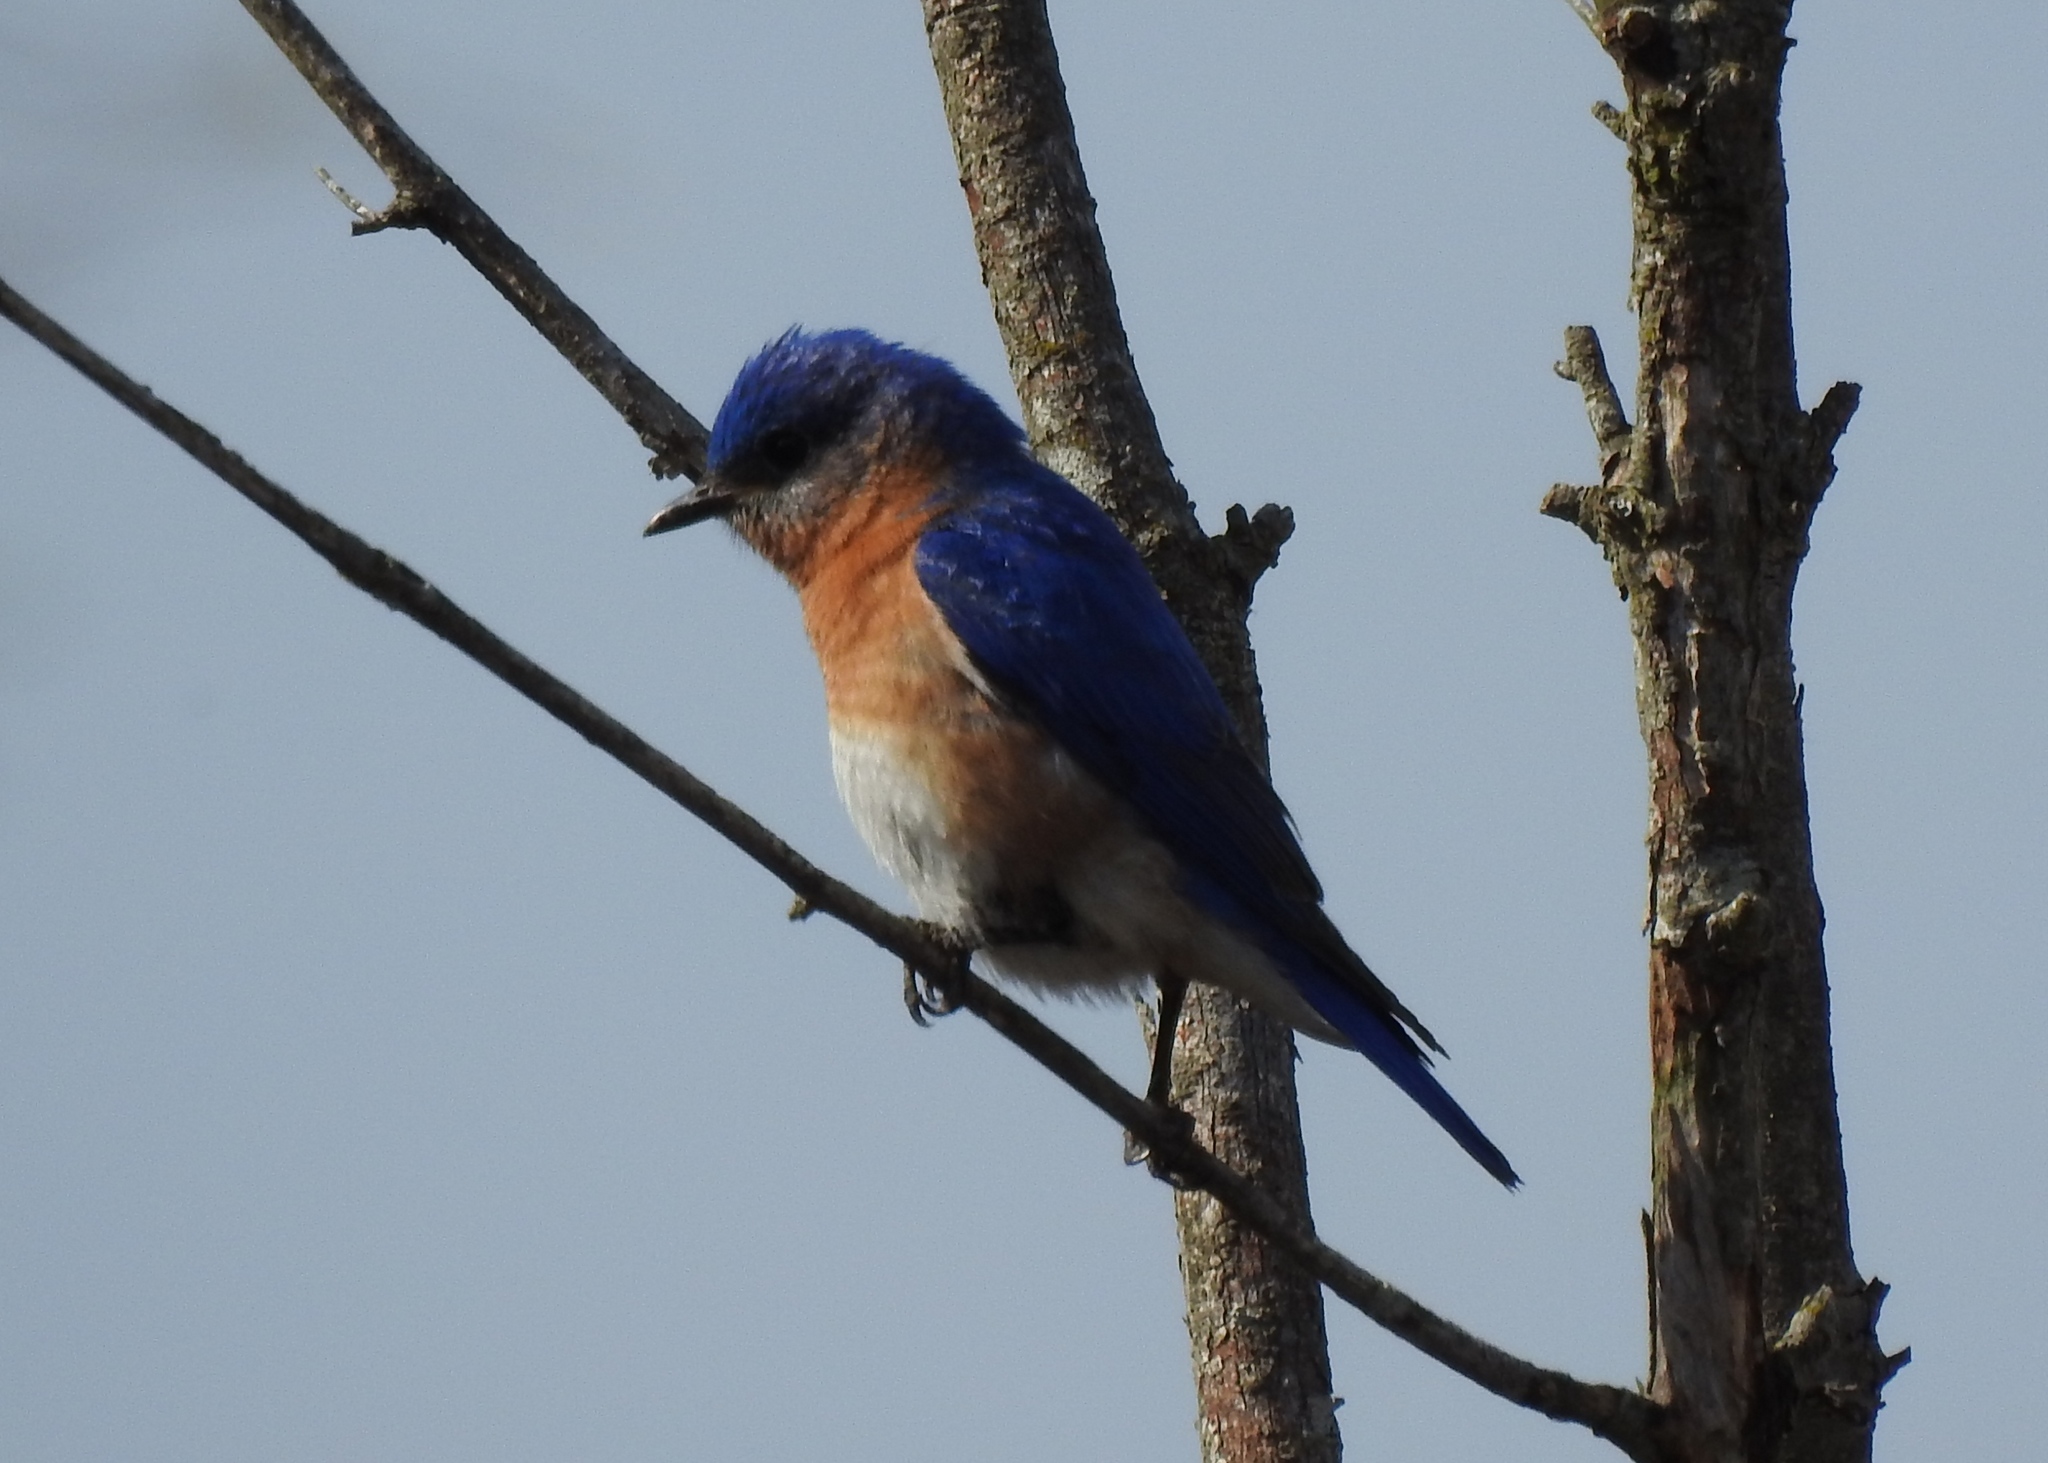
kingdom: Animalia
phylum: Chordata
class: Aves
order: Passeriformes
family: Turdidae
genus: Sialia
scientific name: Sialia sialis
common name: Eastern bluebird
